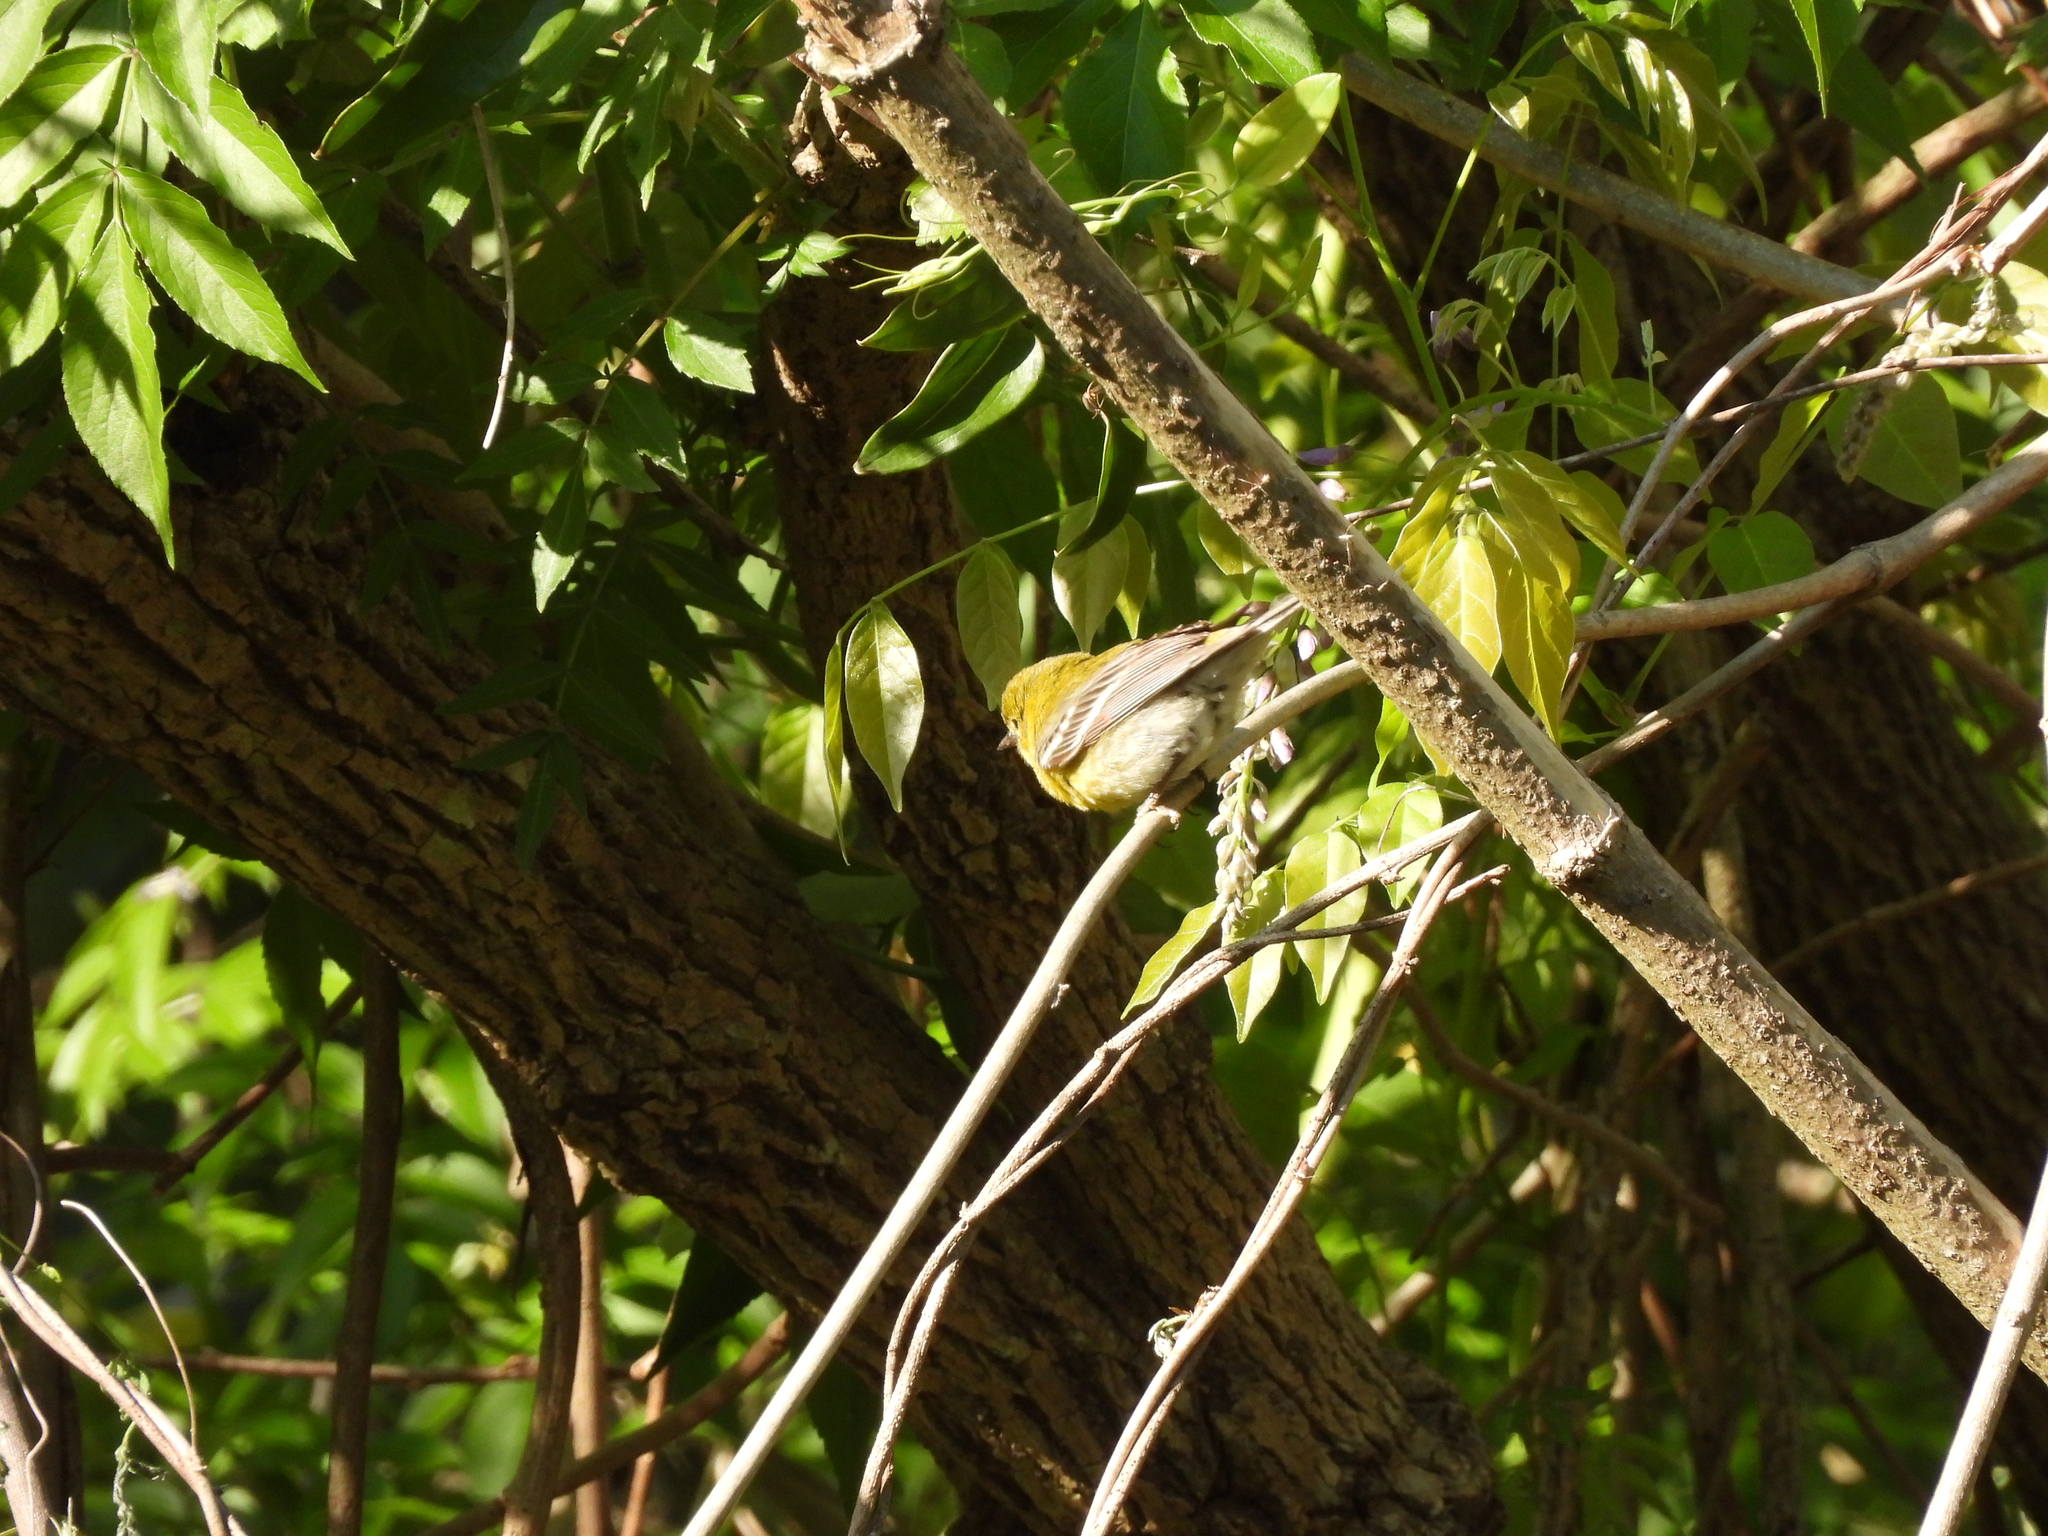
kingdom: Animalia
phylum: Chordata
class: Aves
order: Passeriformes
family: Parulidae
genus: Setophaga
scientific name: Setophaga pinus
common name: Pine warbler
